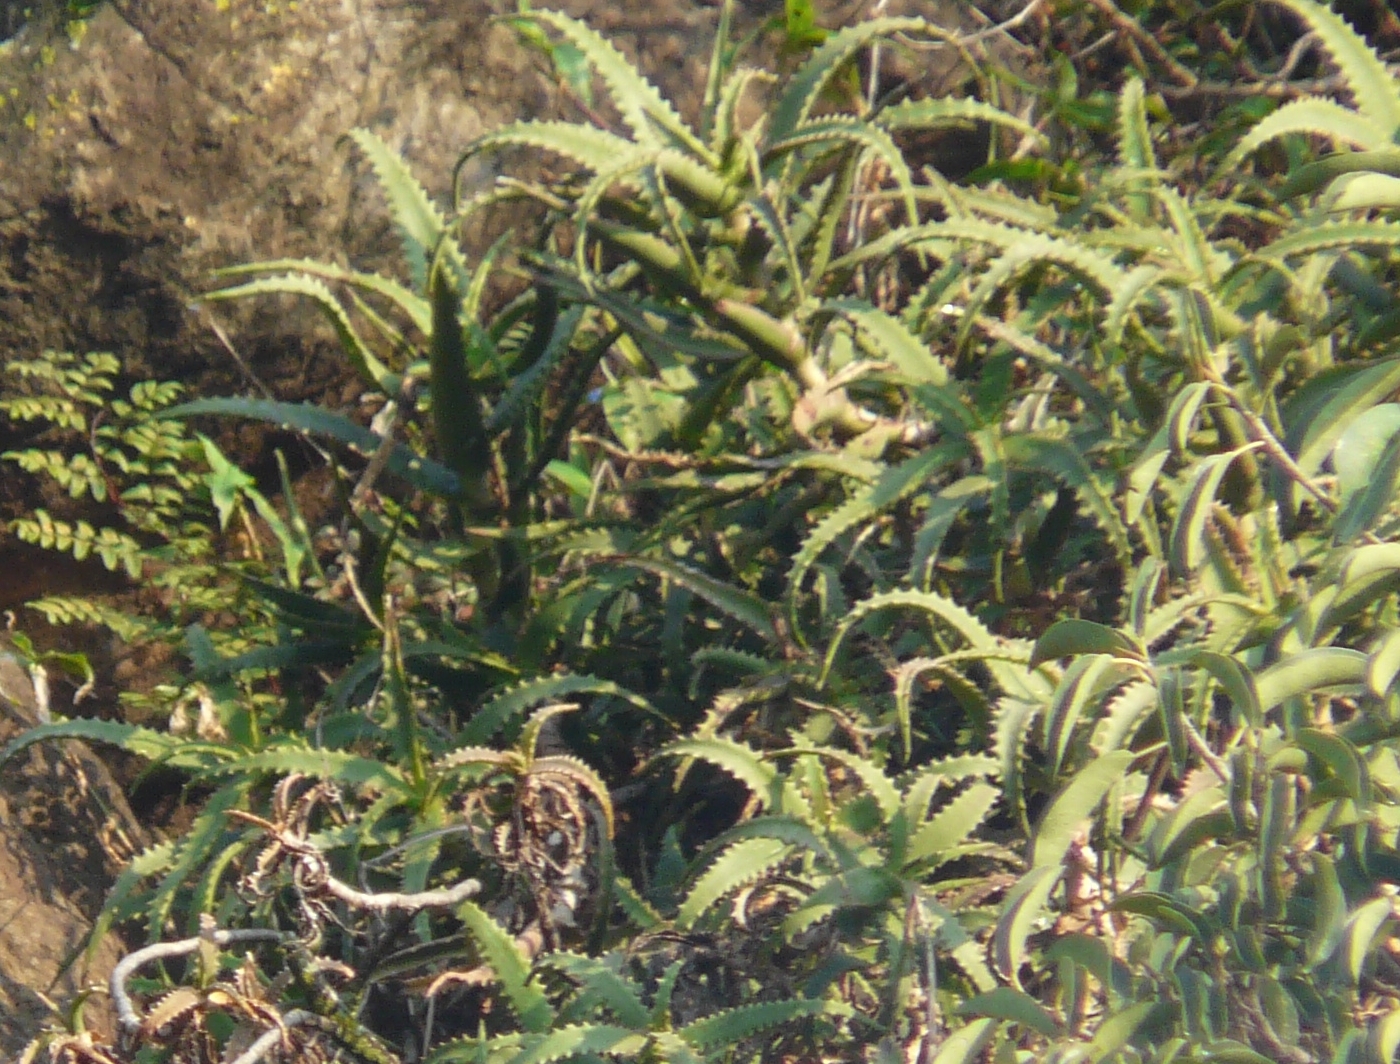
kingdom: Plantae
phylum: Tracheophyta
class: Liliopsida
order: Asparagales
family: Asphodelaceae
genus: Aloe
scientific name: Aloe arborescens
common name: Candelabra aloe
